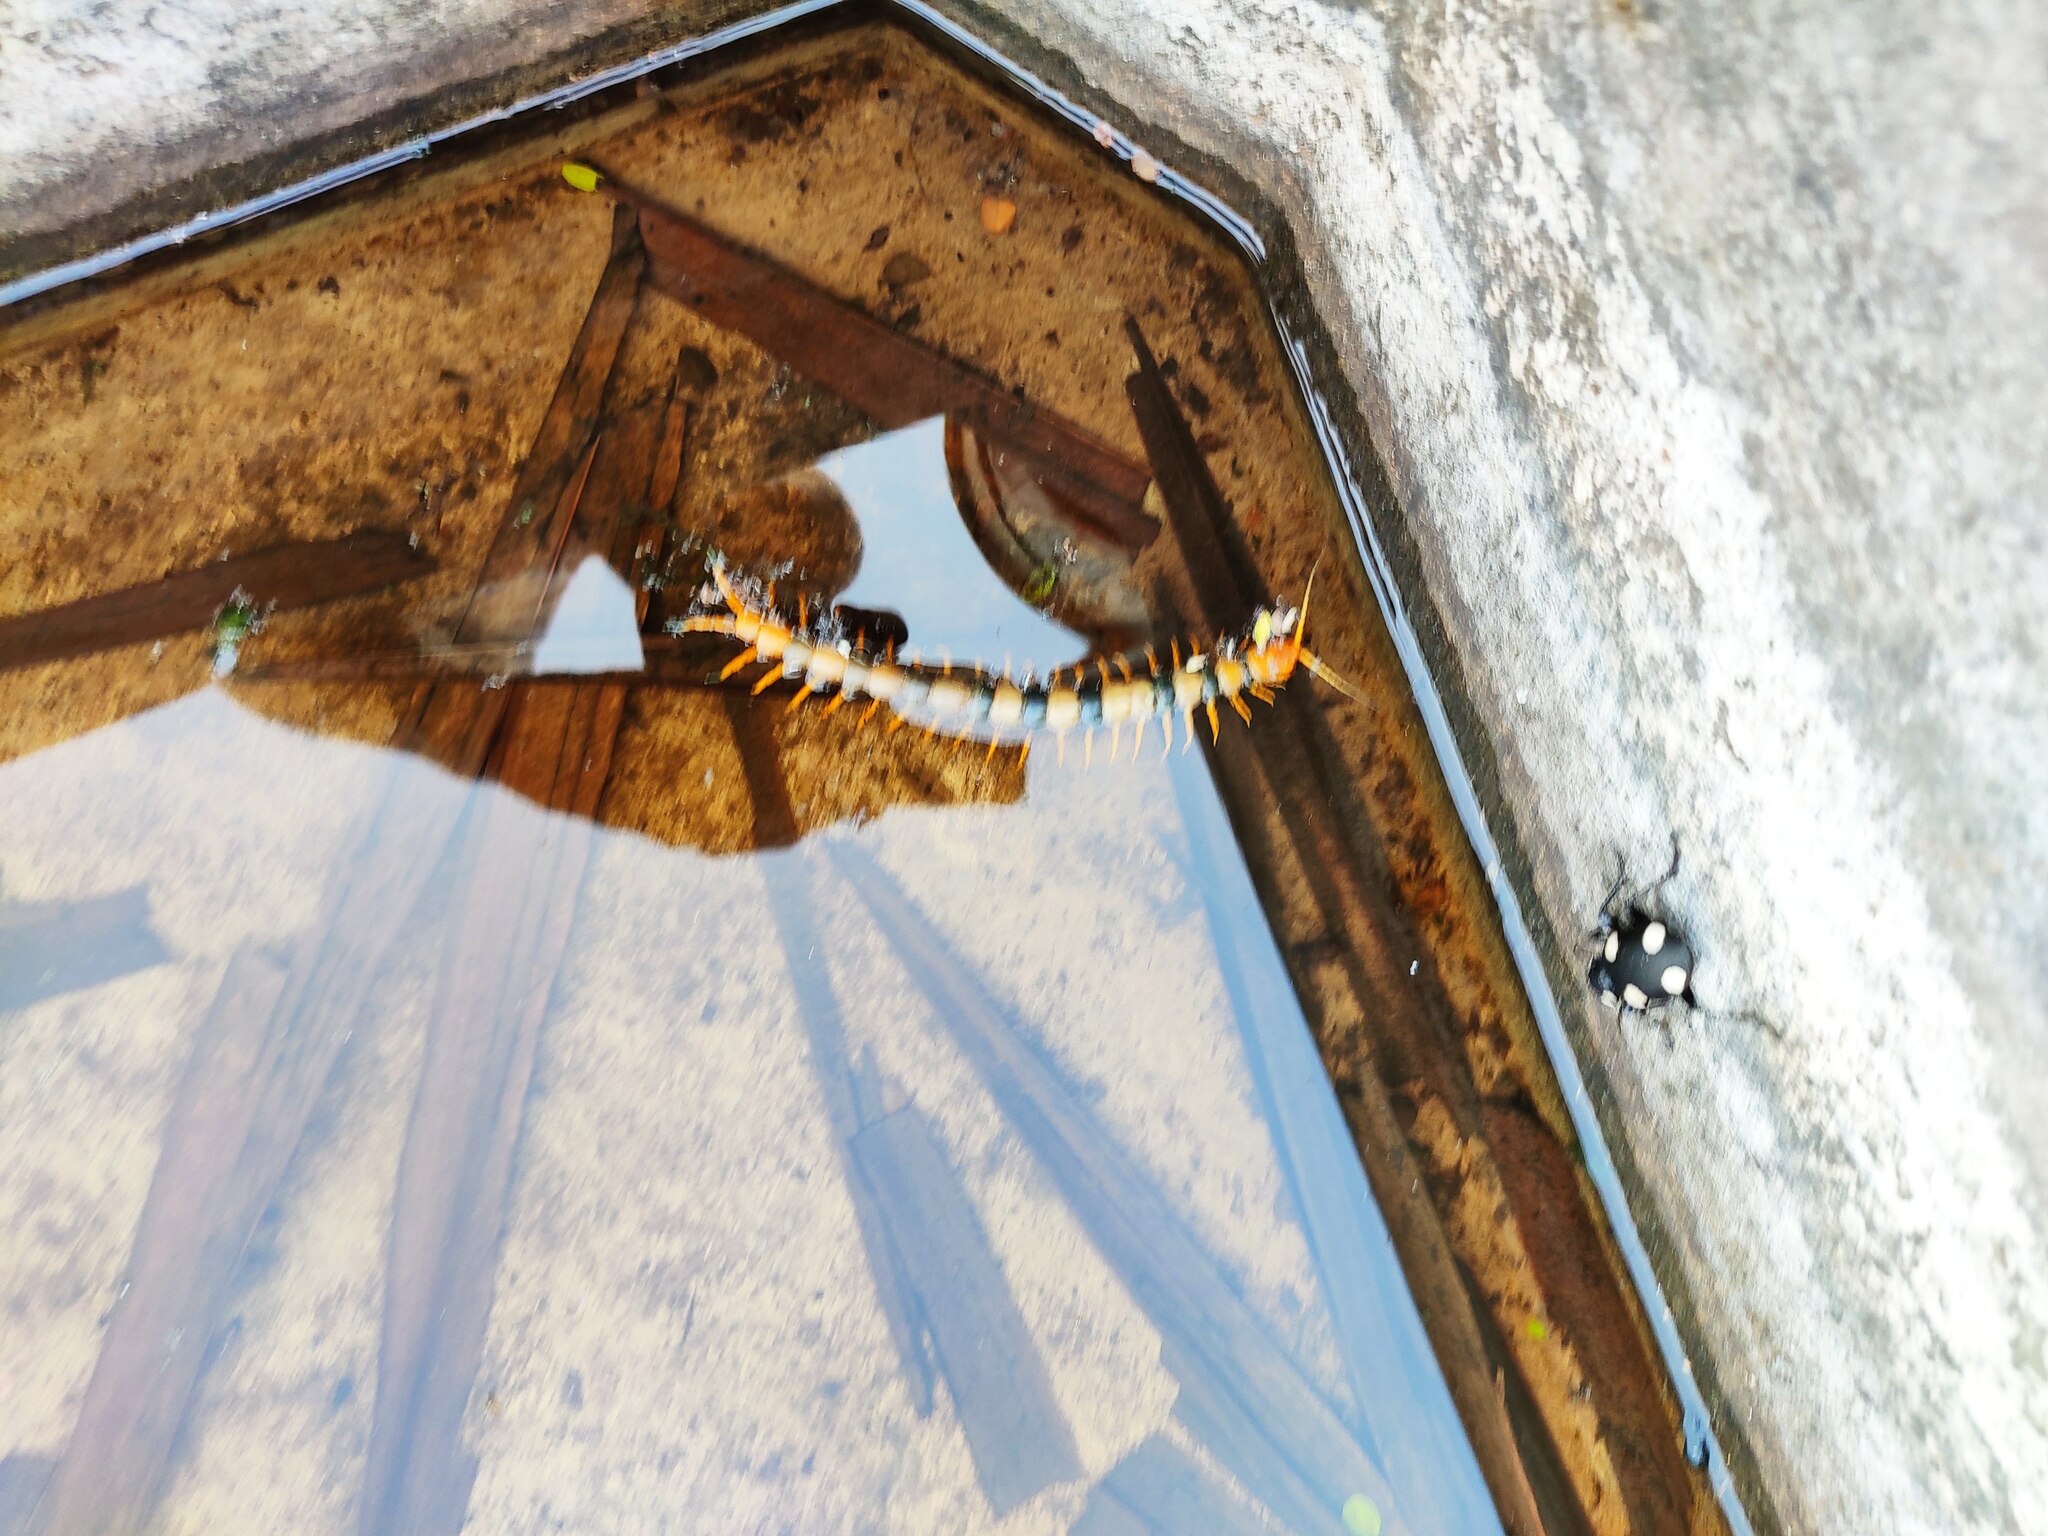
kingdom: Animalia
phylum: Arthropoda
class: Chilopoda
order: Scolopendromorpha
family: Scolopendridae
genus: Scolopendra
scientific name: Scolopendra hardwickei
